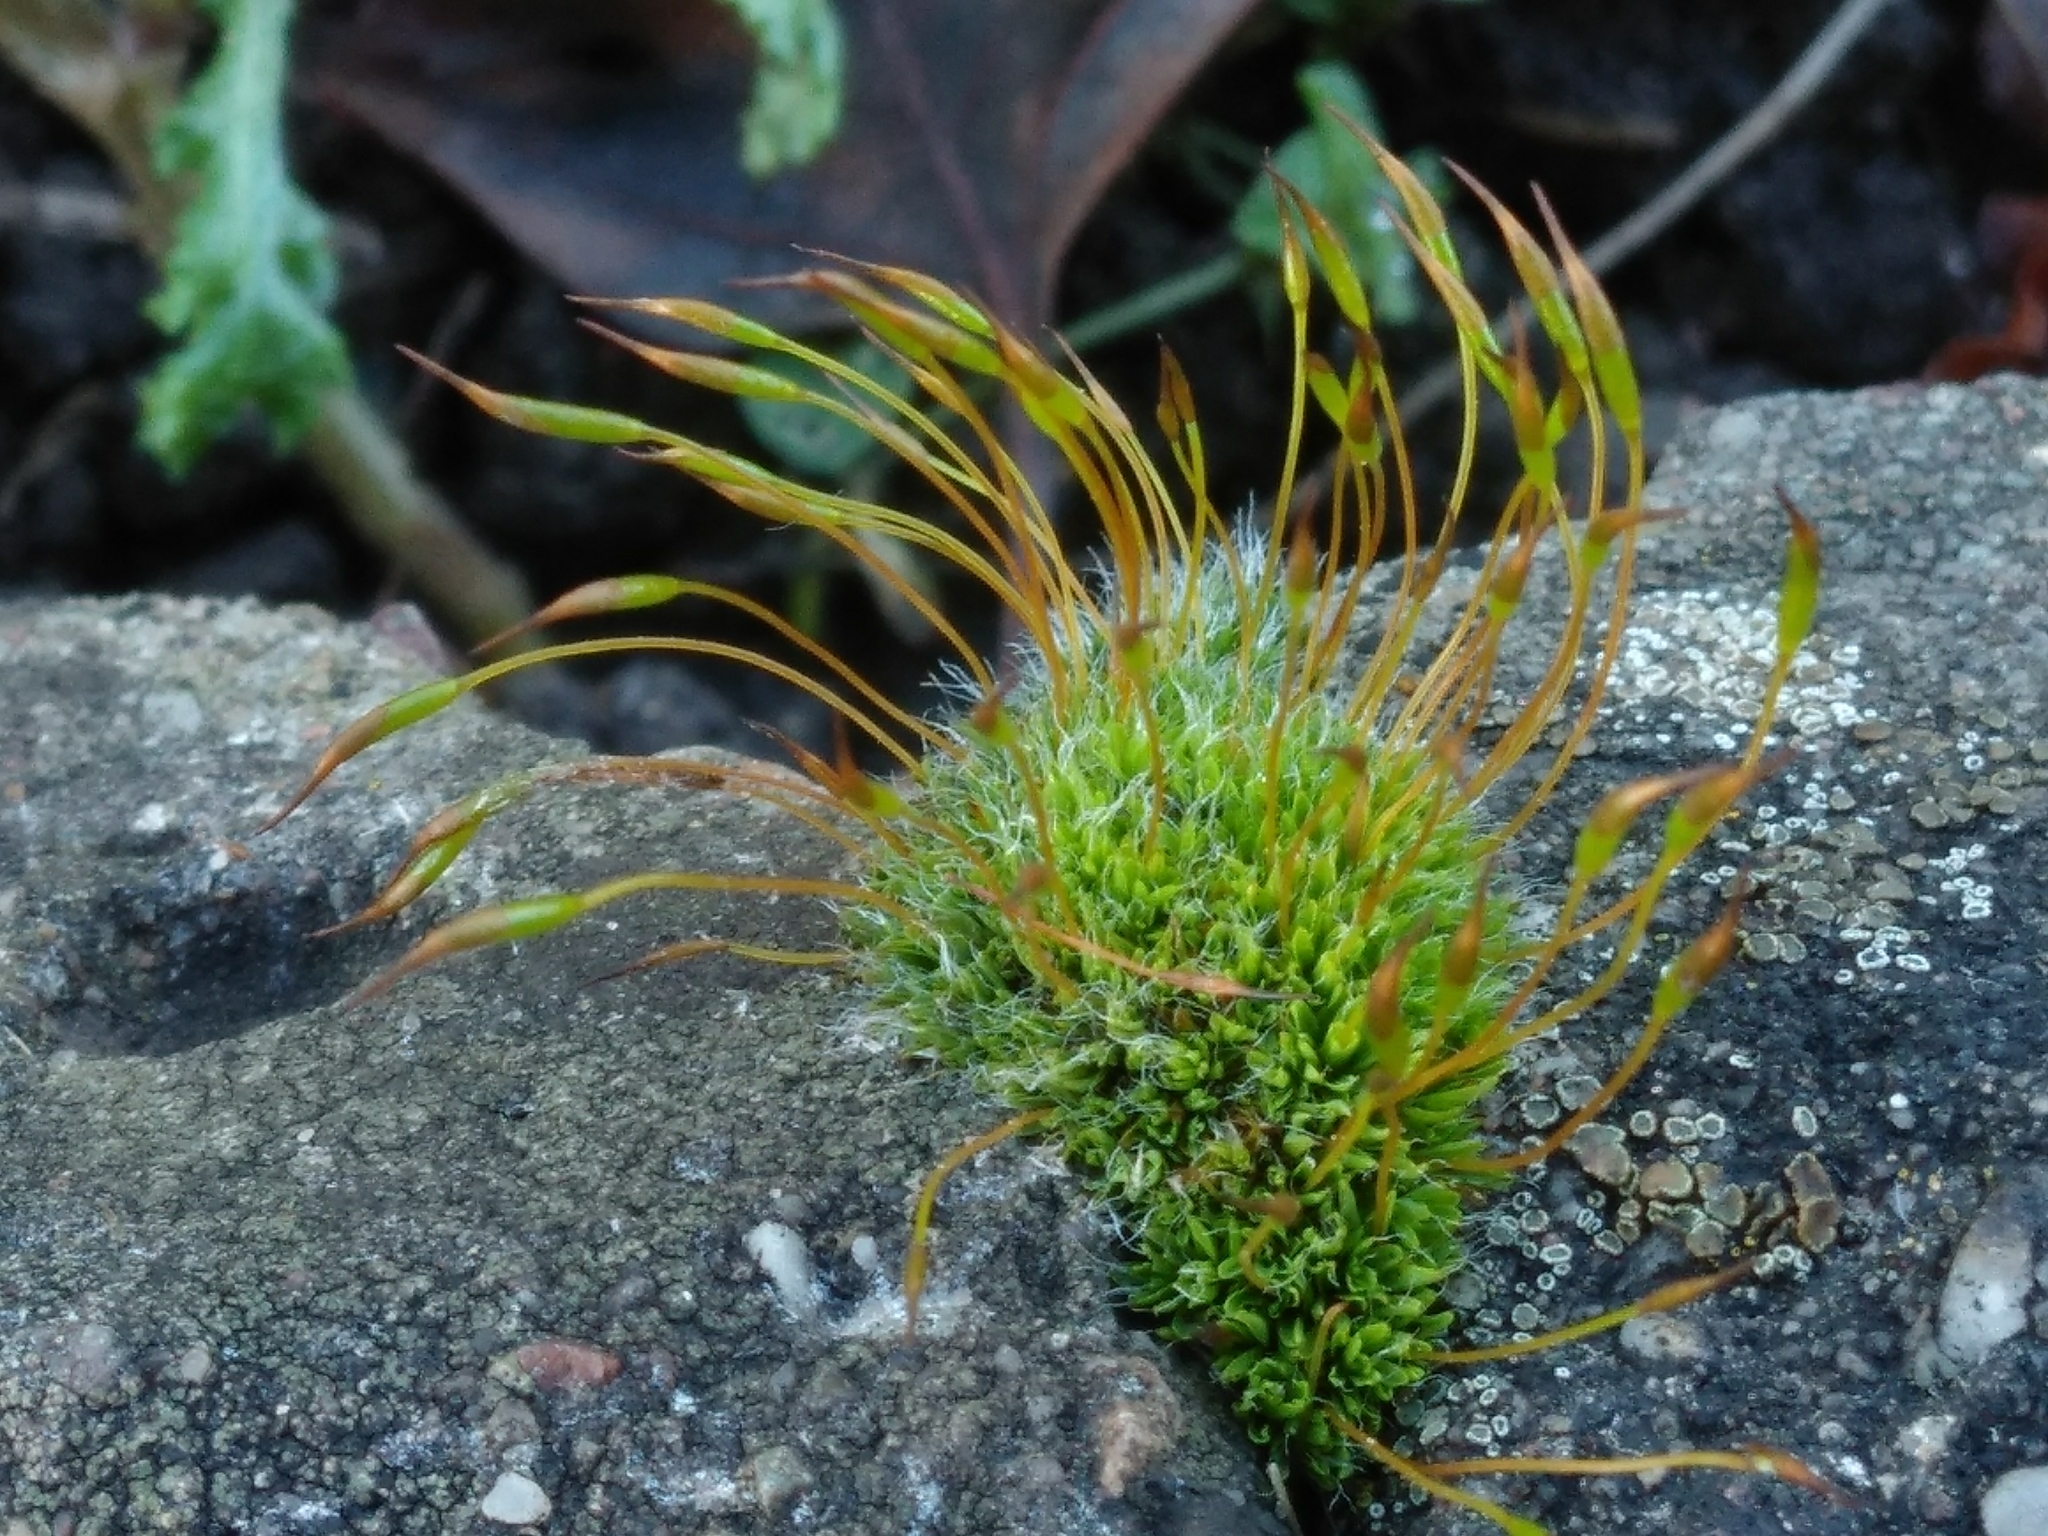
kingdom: Plantae
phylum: Bryophyta
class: Bryopsida
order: Pottiales
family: Pottiaceae
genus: Tortula
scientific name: Tortula muralis
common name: Wall screw-moss
